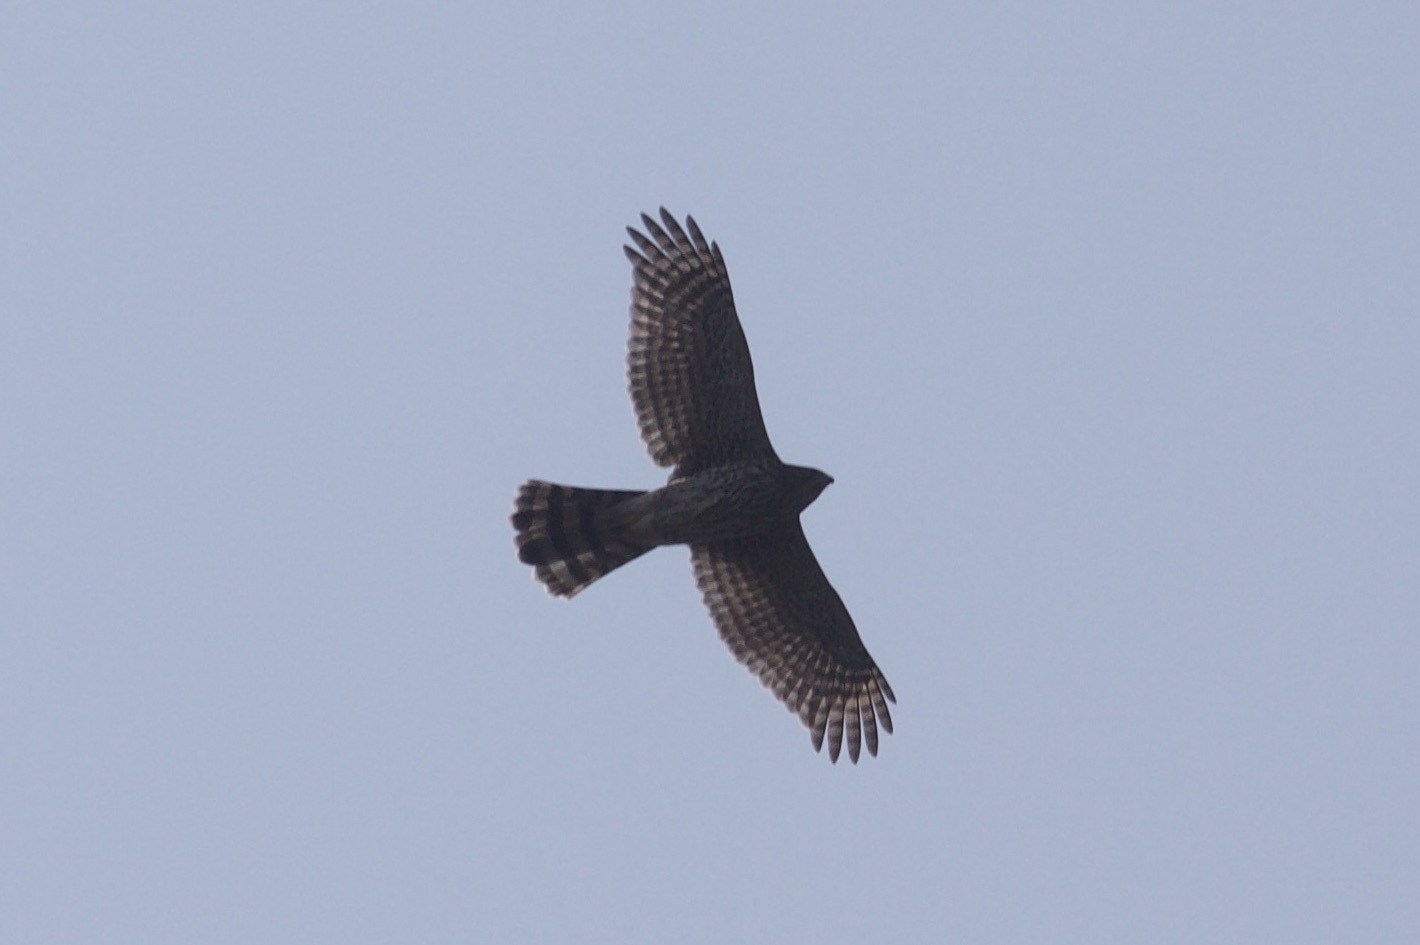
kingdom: Animalia
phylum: Chordata
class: Aves
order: Accipitriformes
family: Accipitridae
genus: Accipiter
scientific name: Accipiter cooperii
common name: Cooper's hawk
